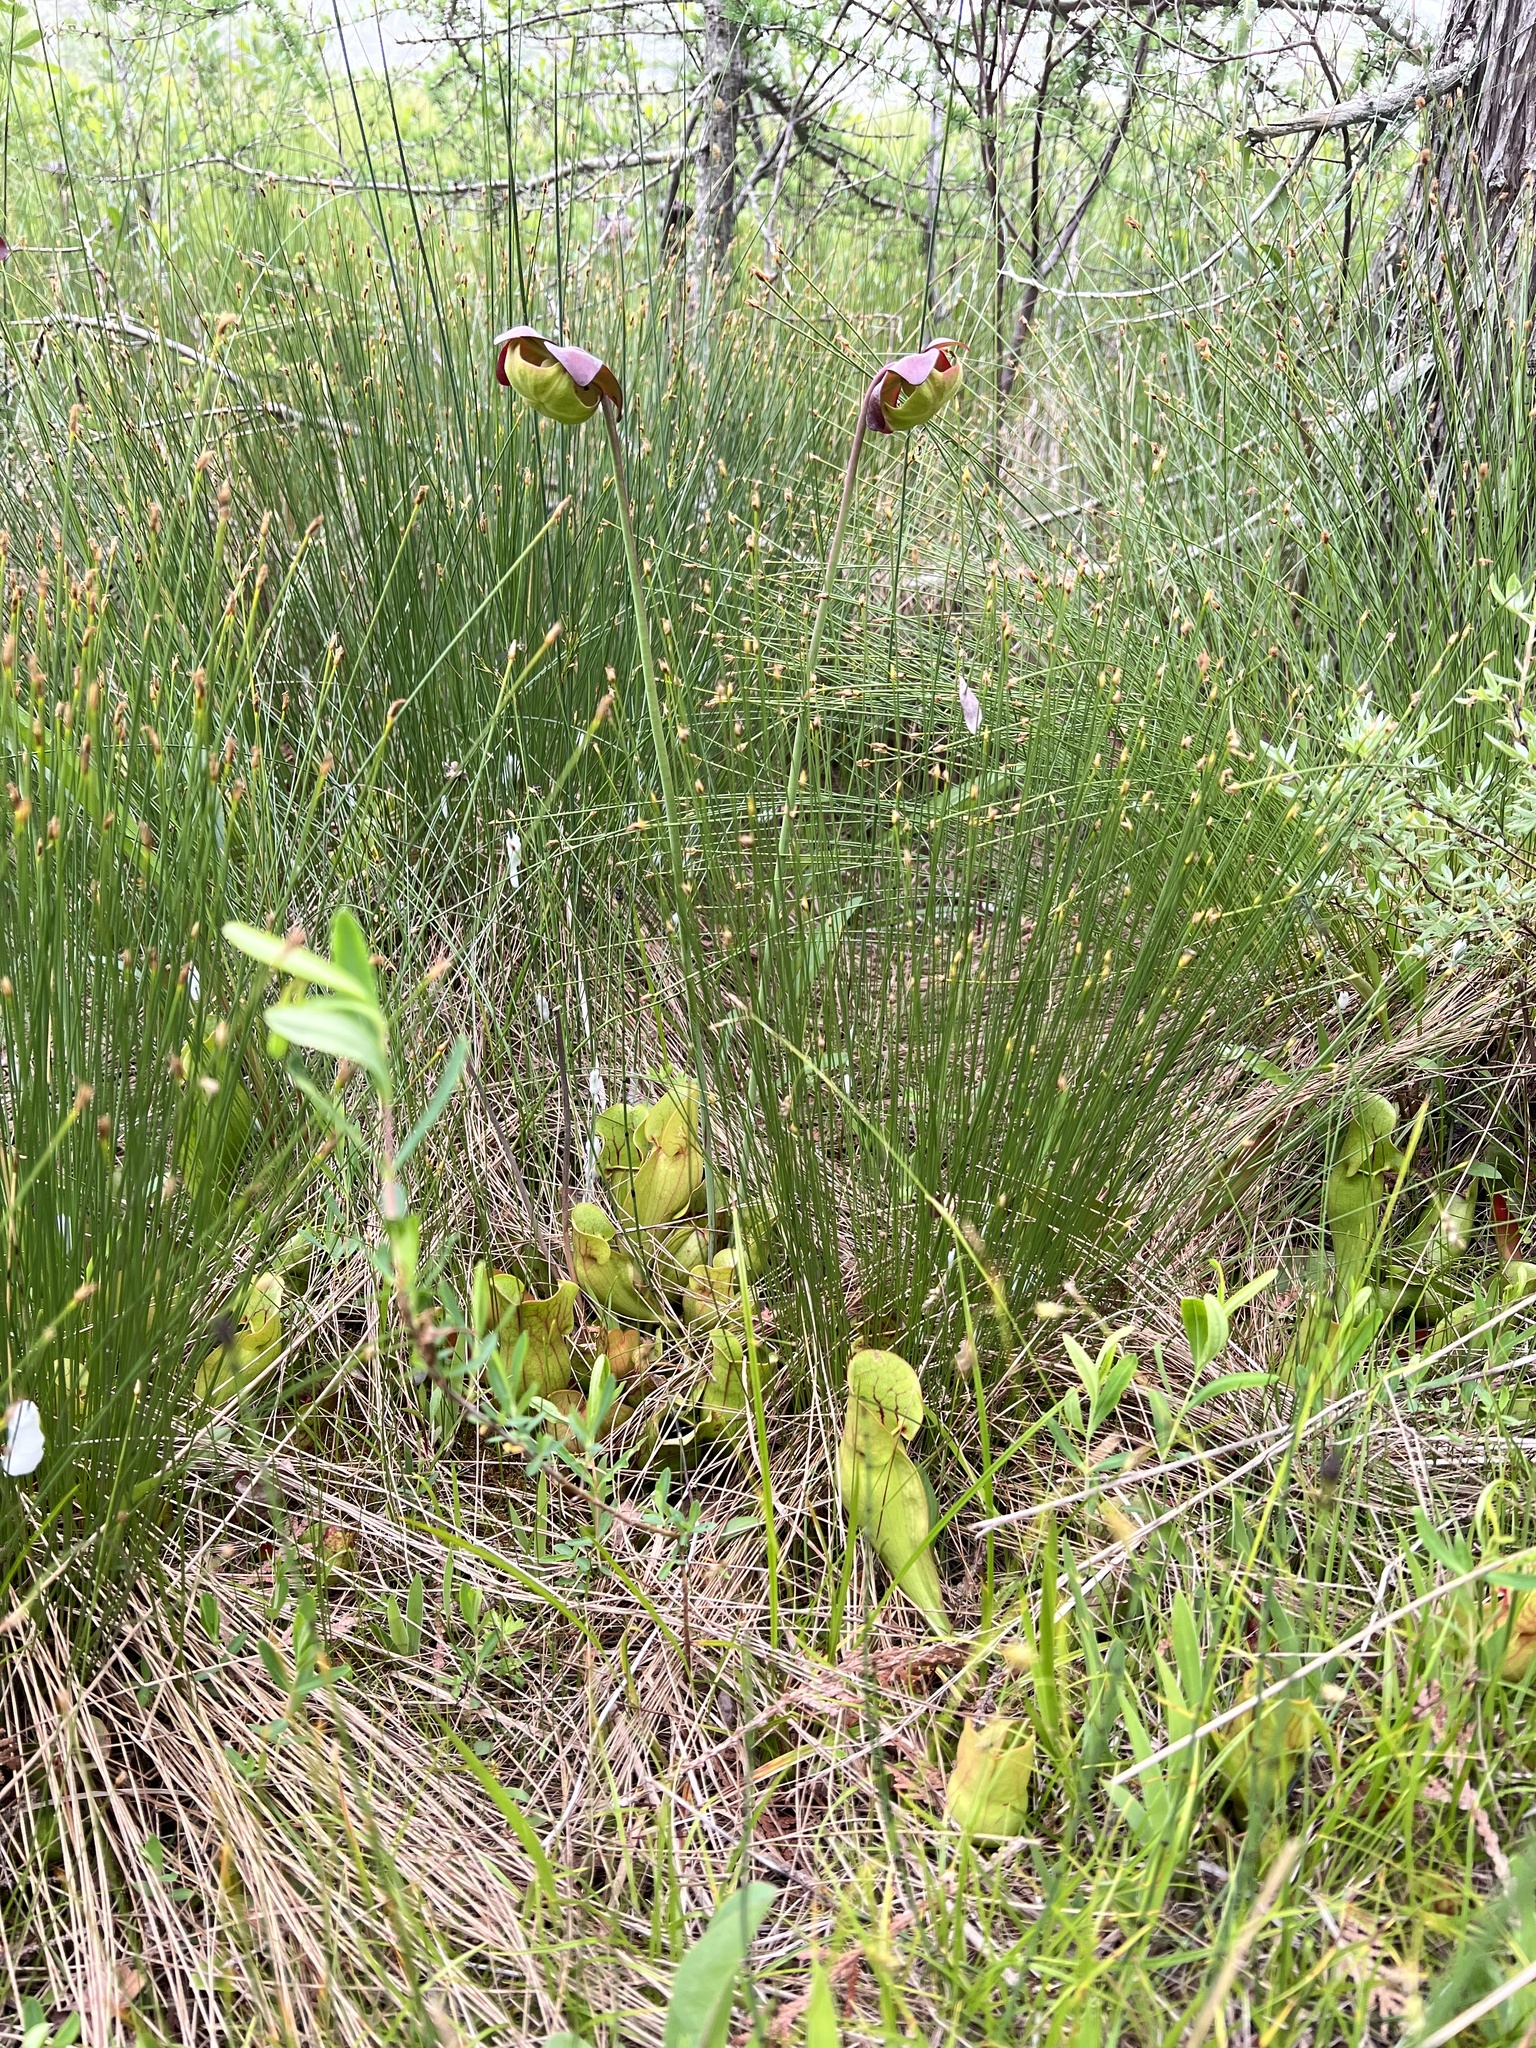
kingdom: Plantae
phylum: Tracheophyta
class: Magnoliopsida
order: Ericales
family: Sarraceniaceae
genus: Sarracenia
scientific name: Sarracenia purpurea
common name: Pitcherplant
